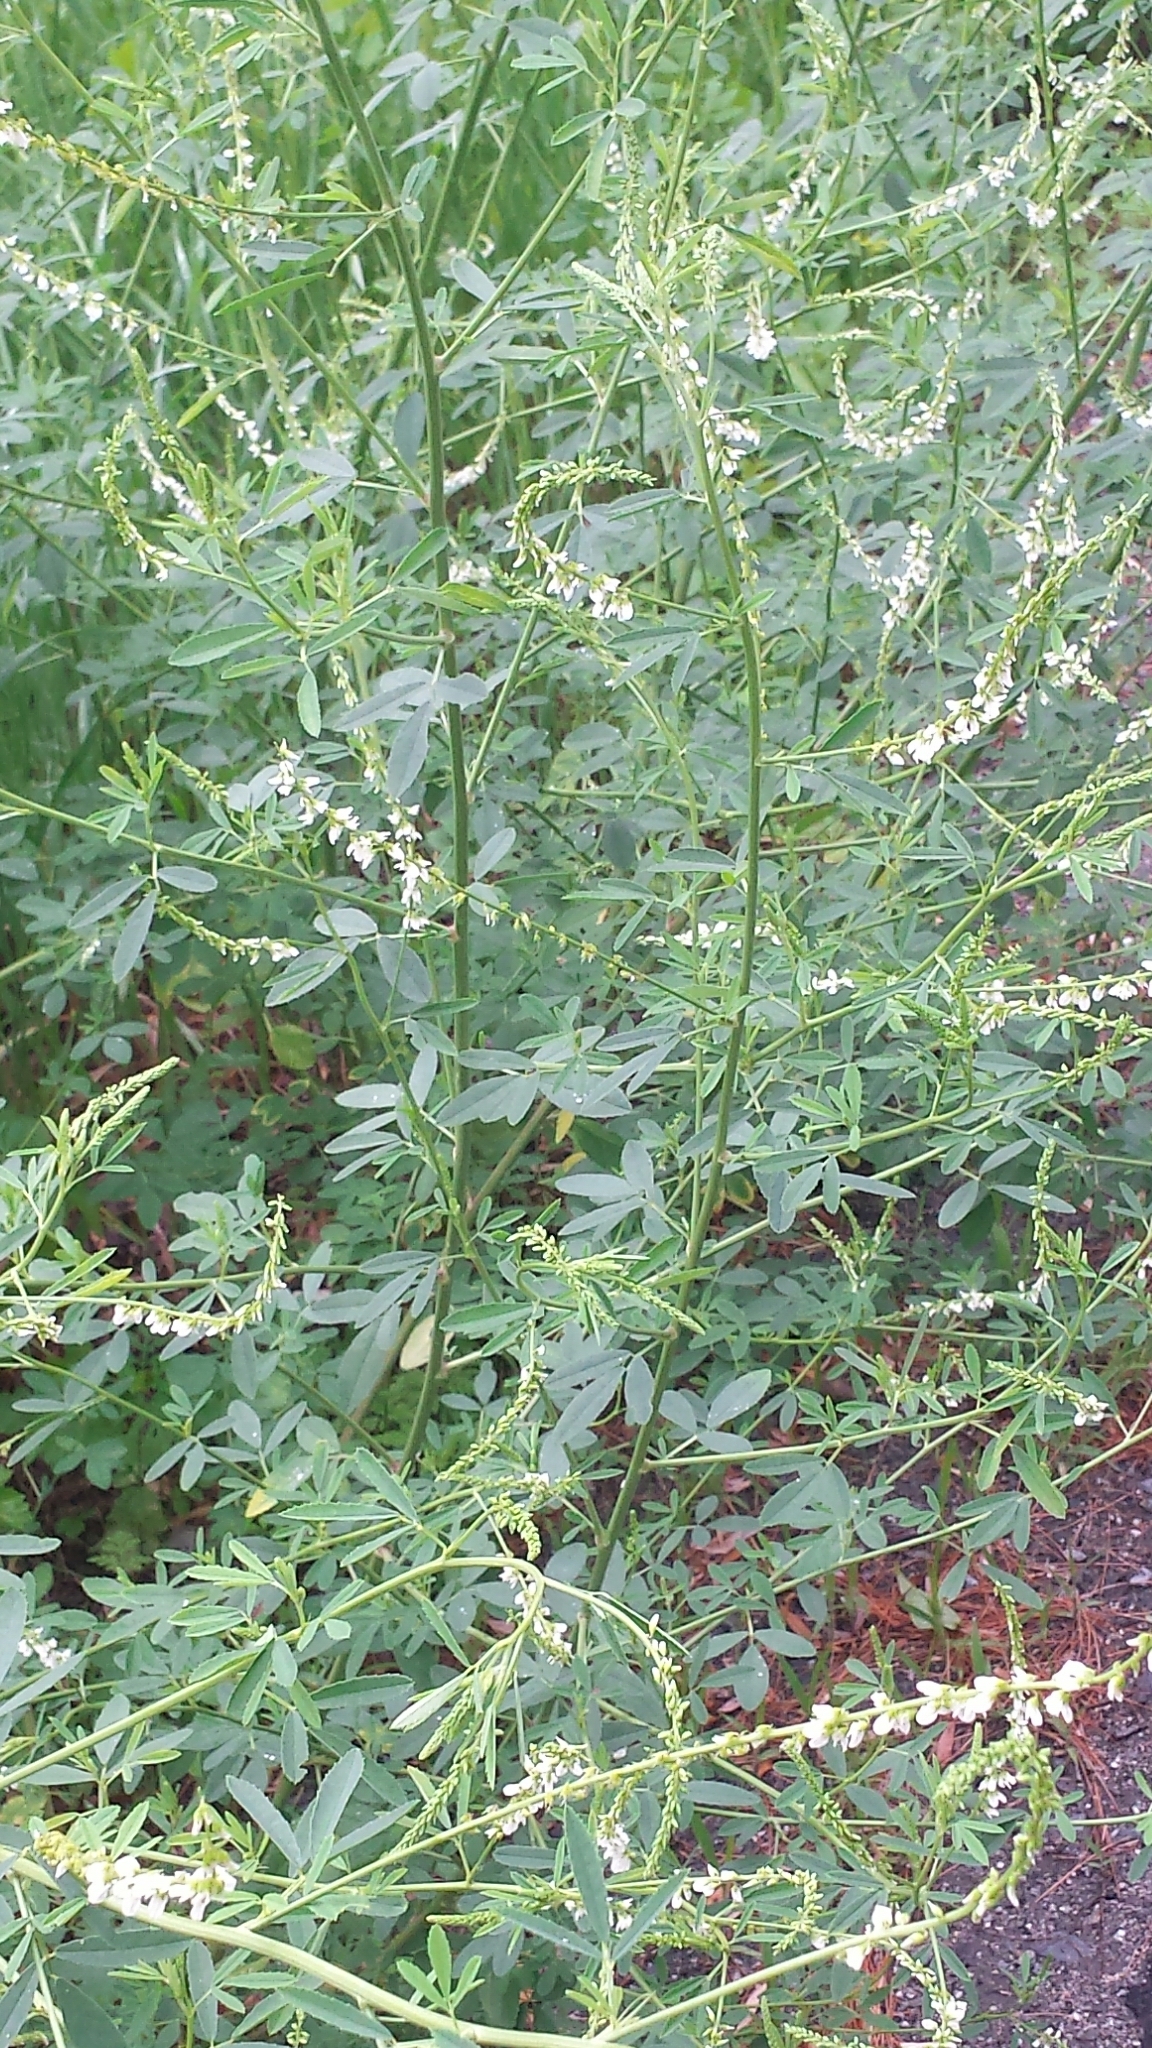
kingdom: Plantae
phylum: Tracheophyta
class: Magnoliopsida
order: Fabales
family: Fabaceae
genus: Melilotus
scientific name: Melilotus albus
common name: White melilot
